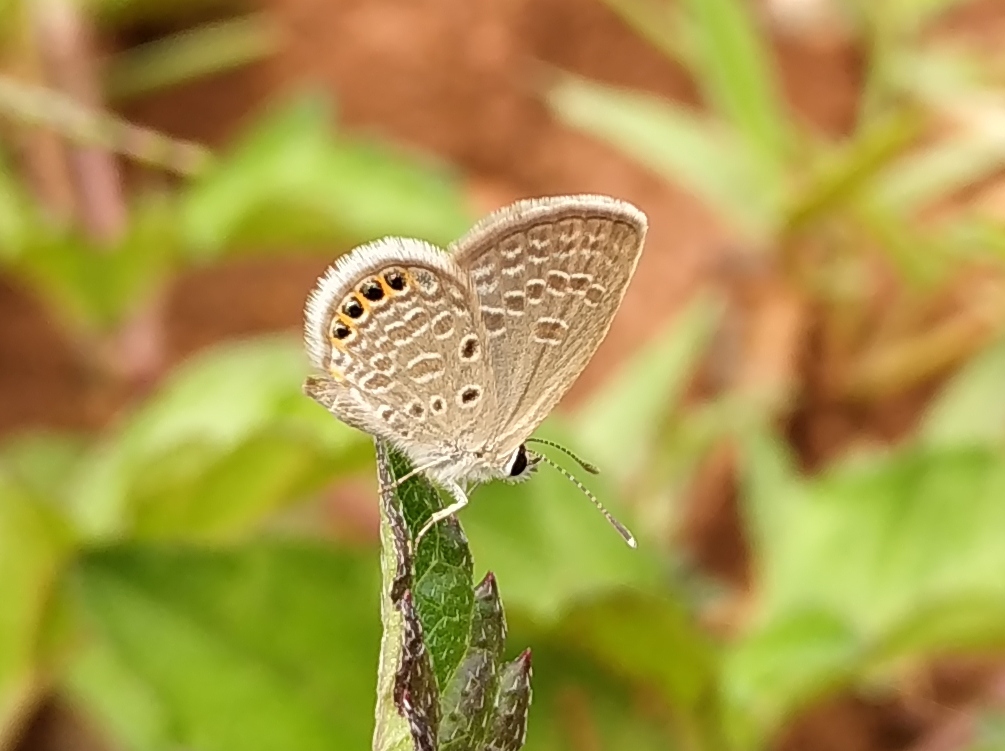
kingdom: Animalia
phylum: Arthropoda
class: Insecta
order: Lepidoptera
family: Lycaenidae
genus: Freyeria
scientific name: Freyeria putli
